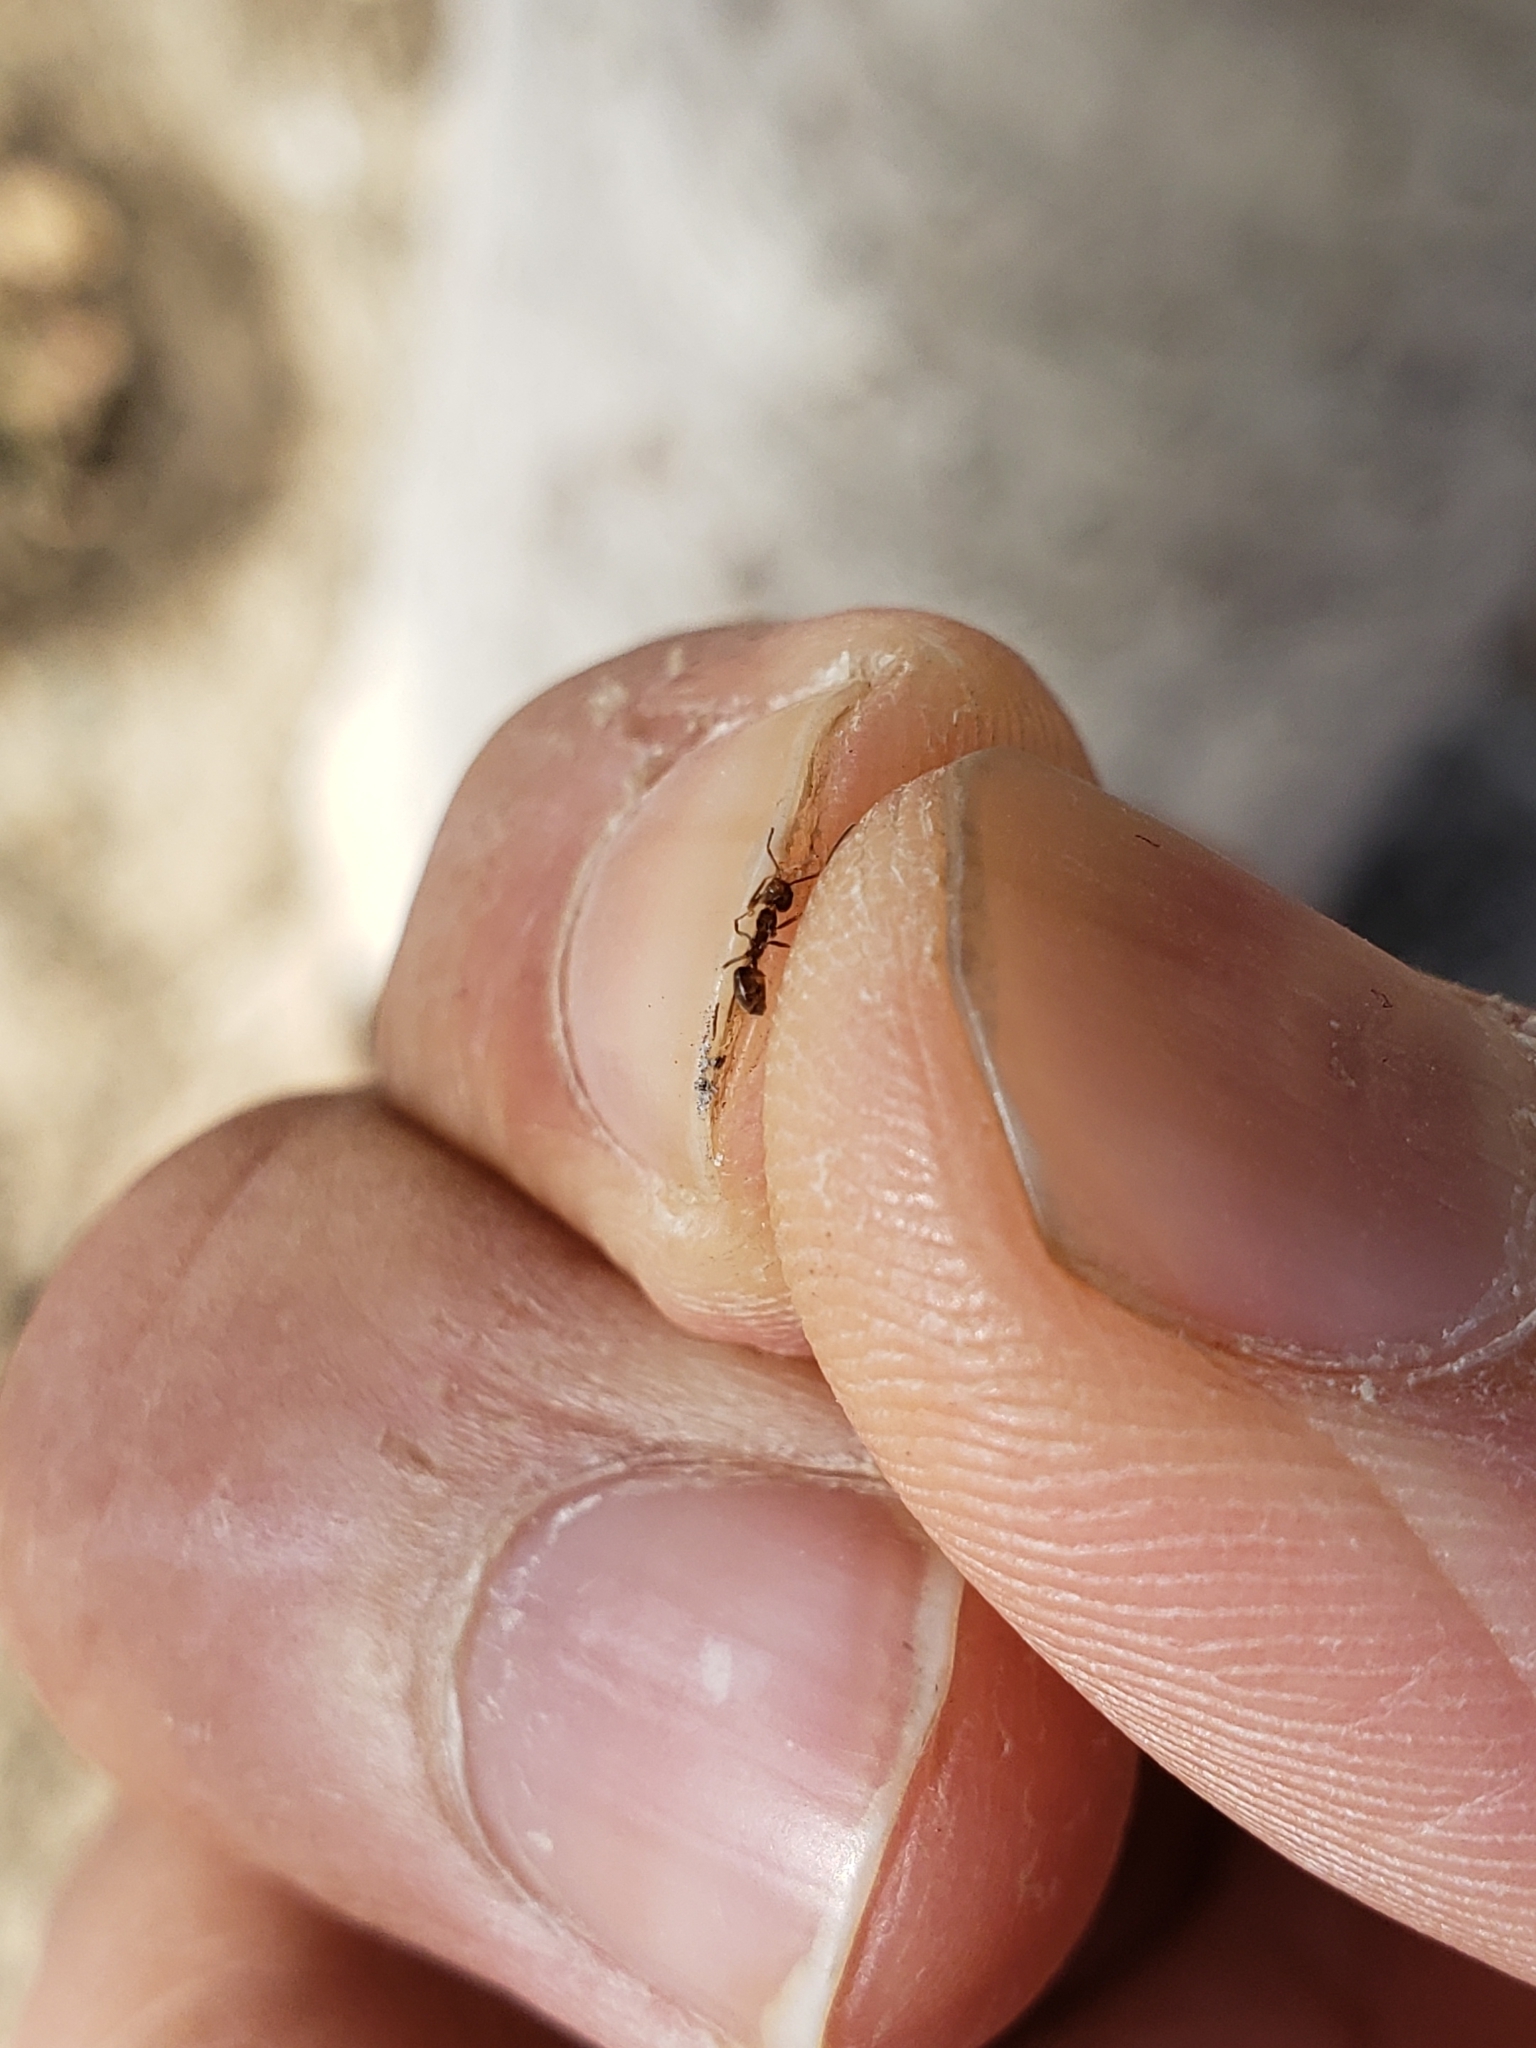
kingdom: Animalia
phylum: Arthropoda
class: Insecta
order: Hymenoptera
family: Formicidae
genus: Linepithema
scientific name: Linepithema humile
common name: Argentine ant
